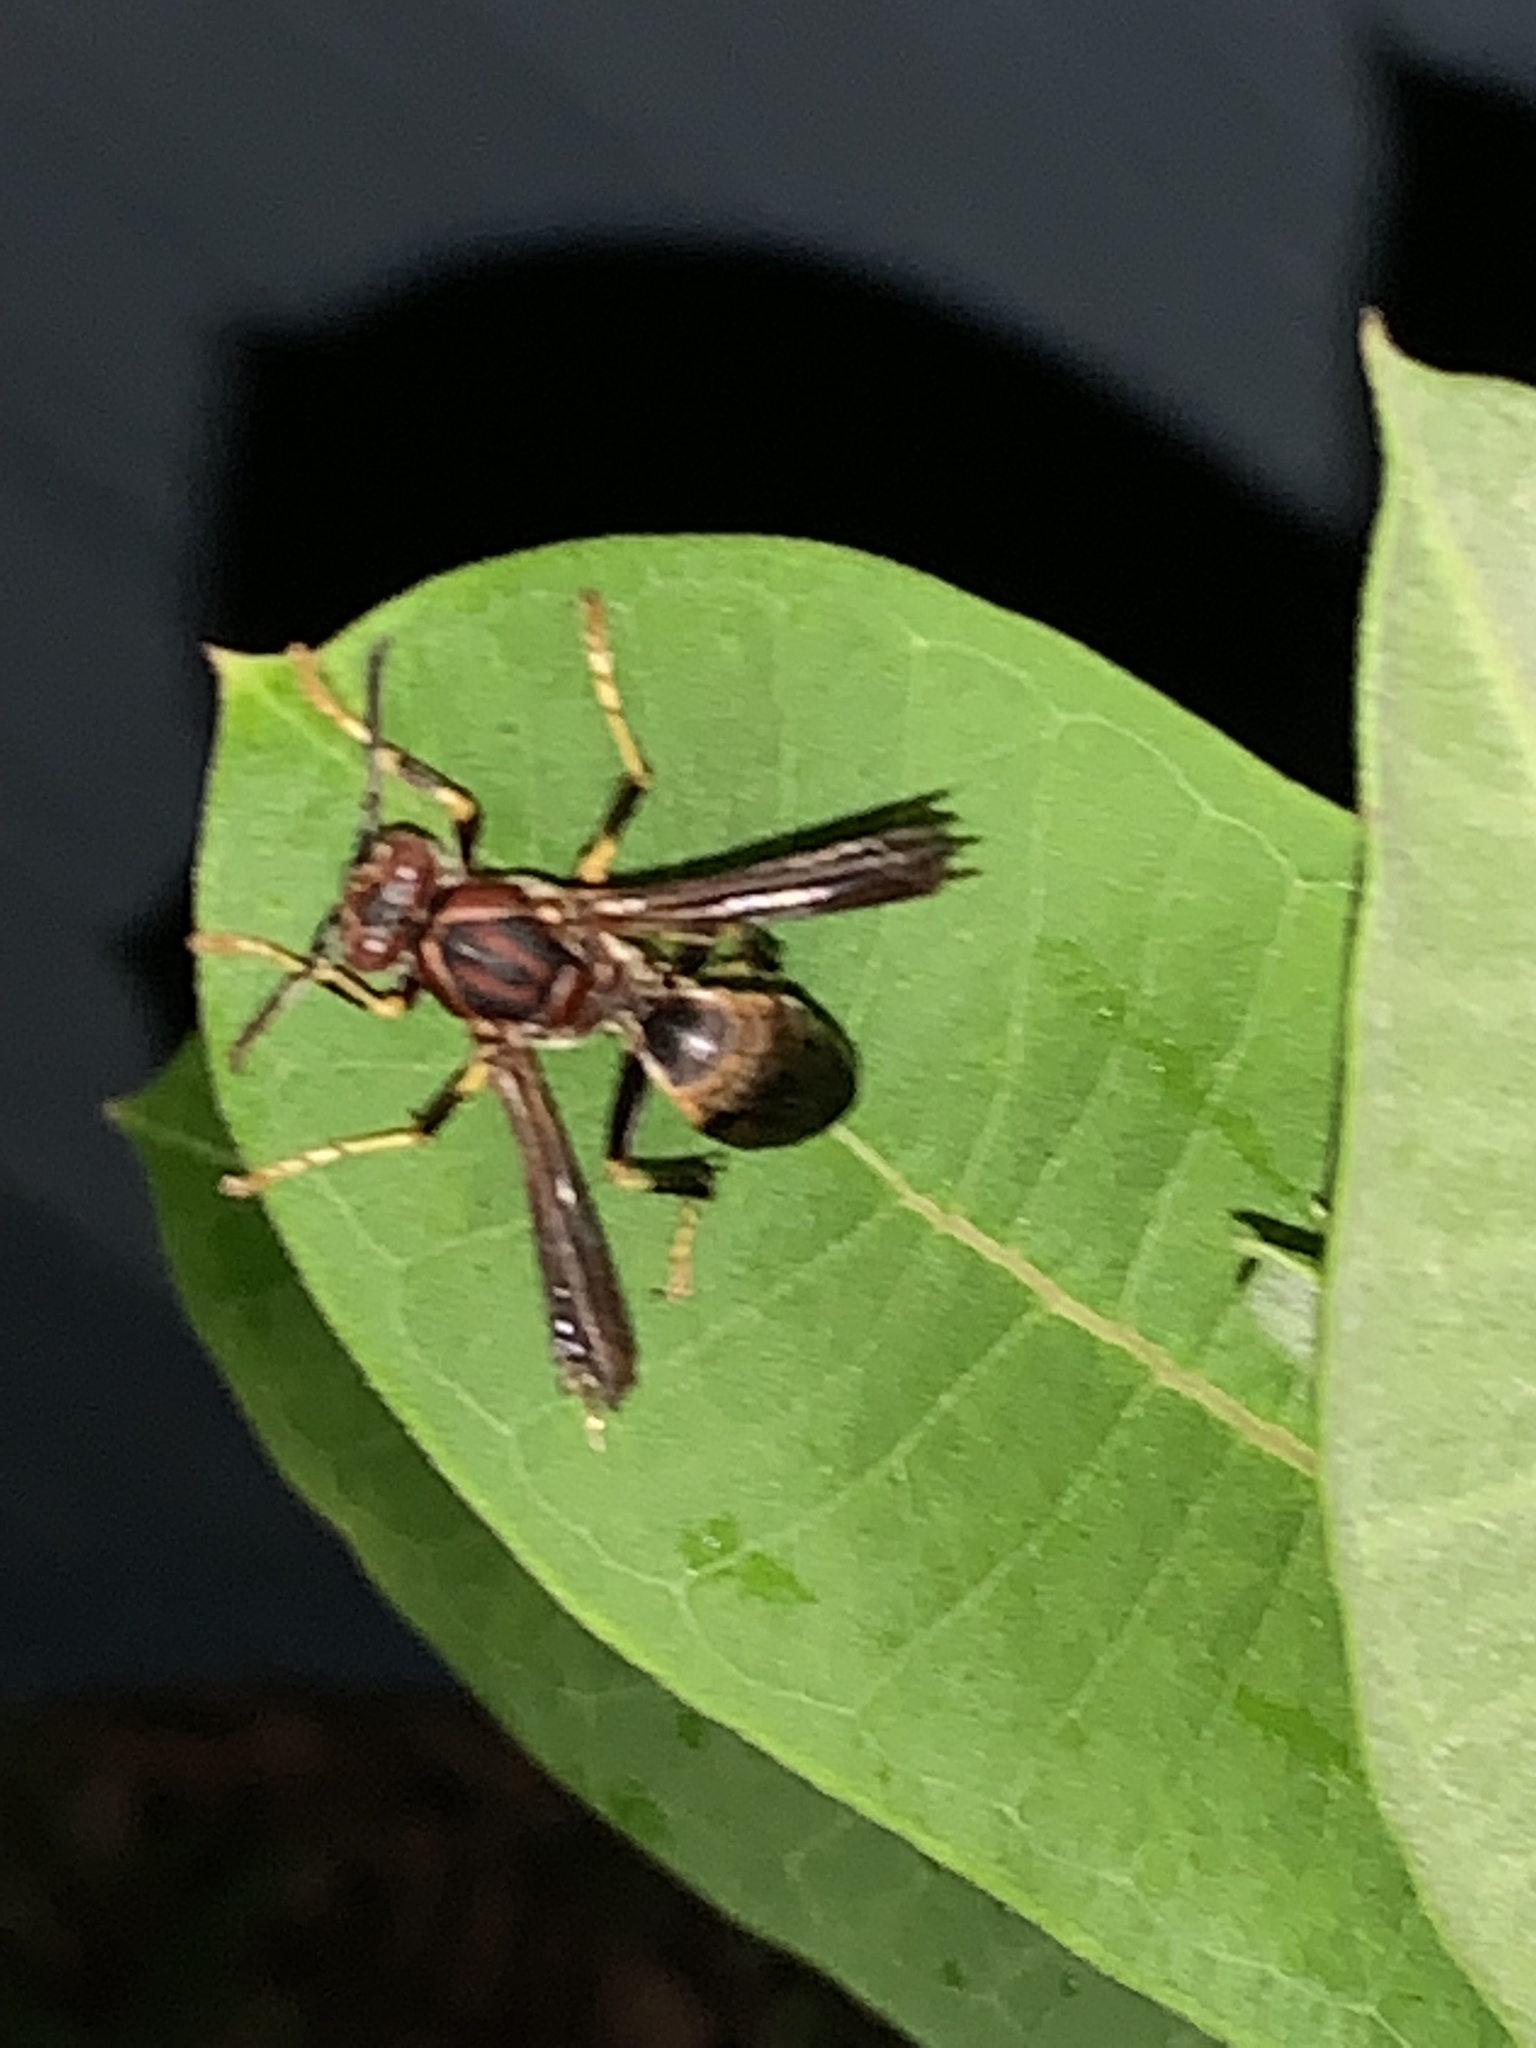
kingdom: Animalia
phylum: Arthropoda
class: Insecta
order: Hymenoptera
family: Eumenidae
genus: Polistes
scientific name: Polistes metricus
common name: Metric paper wasp
